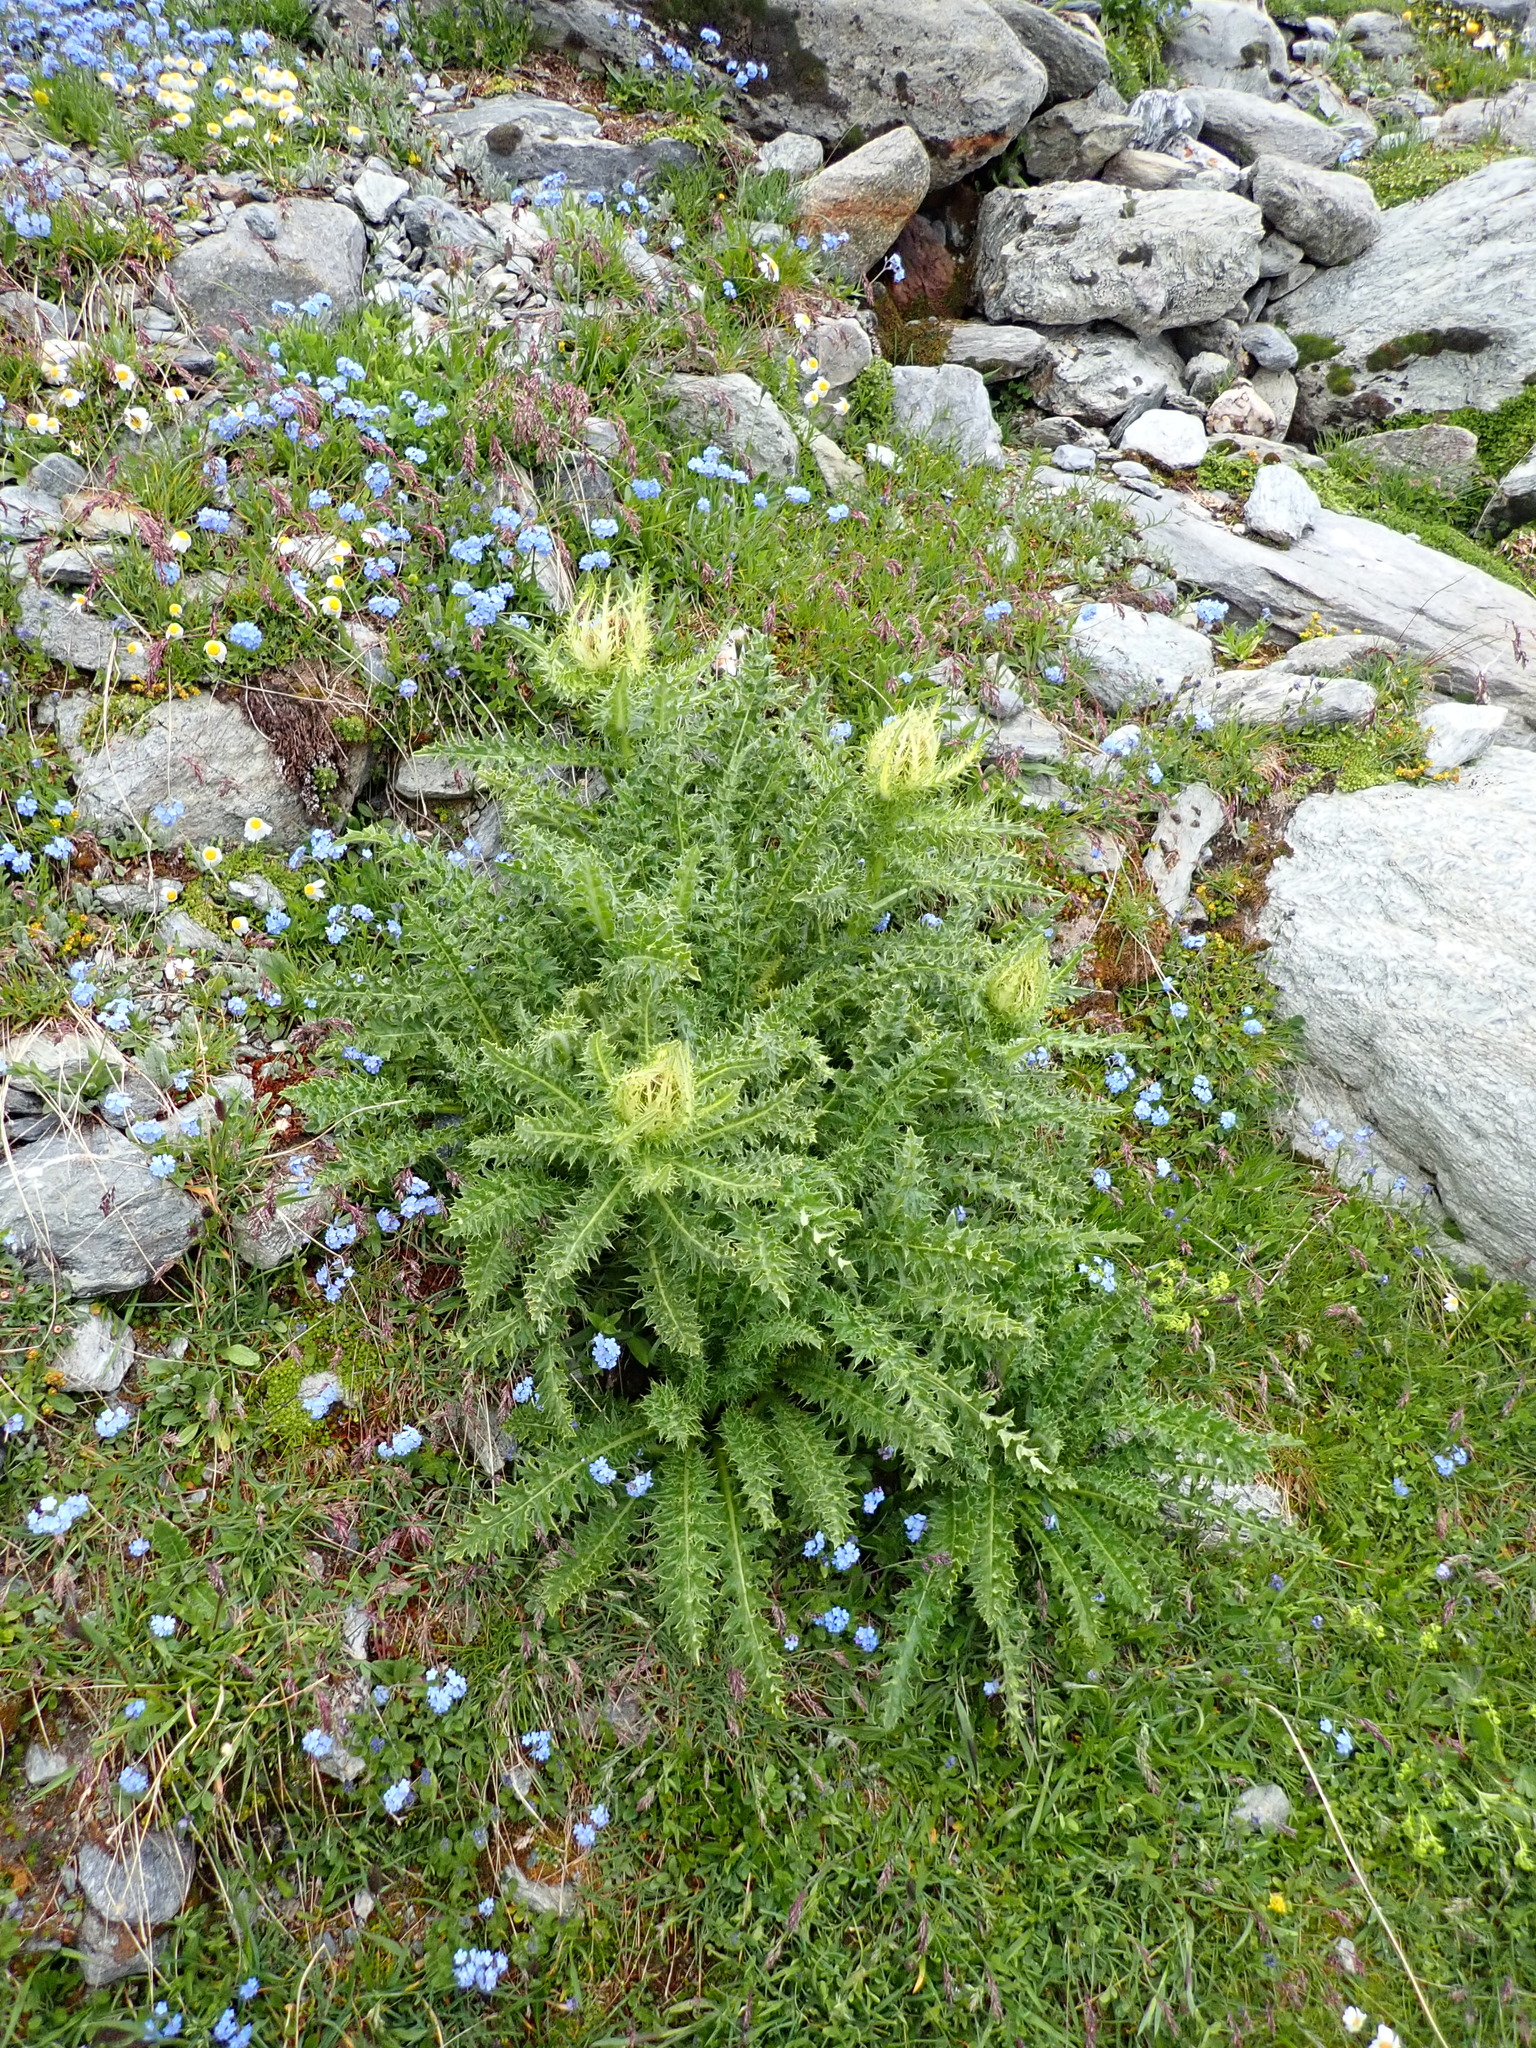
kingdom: Plantae
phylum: Tracheophyta
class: Magnoliopsida
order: Asterales
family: Asteraceae
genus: Cirsium
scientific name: Cirsium spinosissimum
